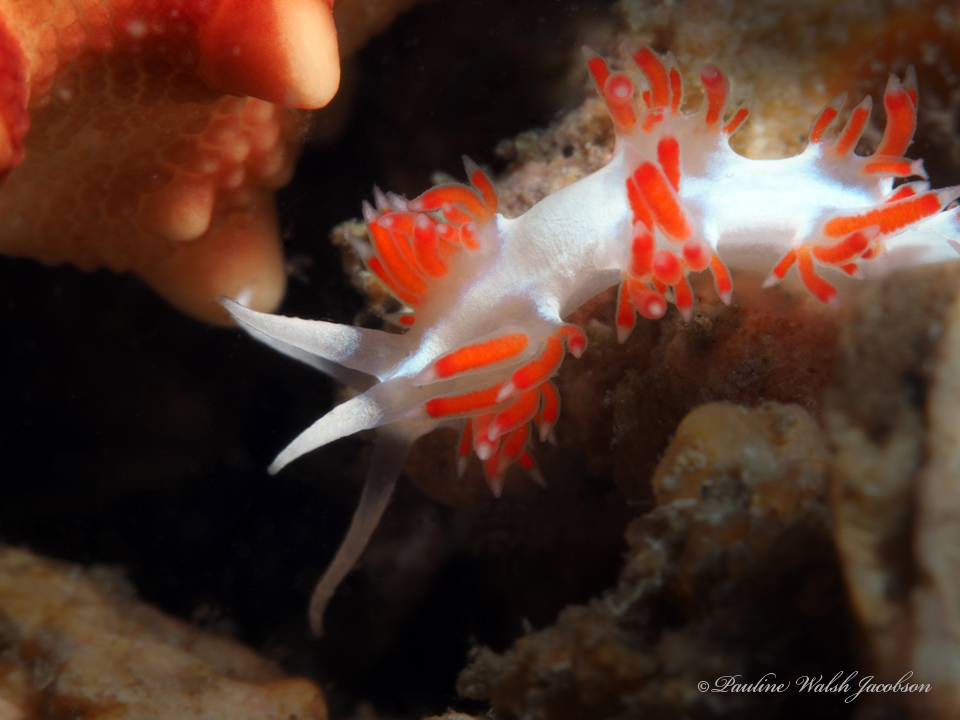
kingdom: Animalia
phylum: Mollusca
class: Gastropoda
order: Nudibranchia
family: Flabellinidae
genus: Flabellina
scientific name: Flabellina dushia
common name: Dushia flabellina
